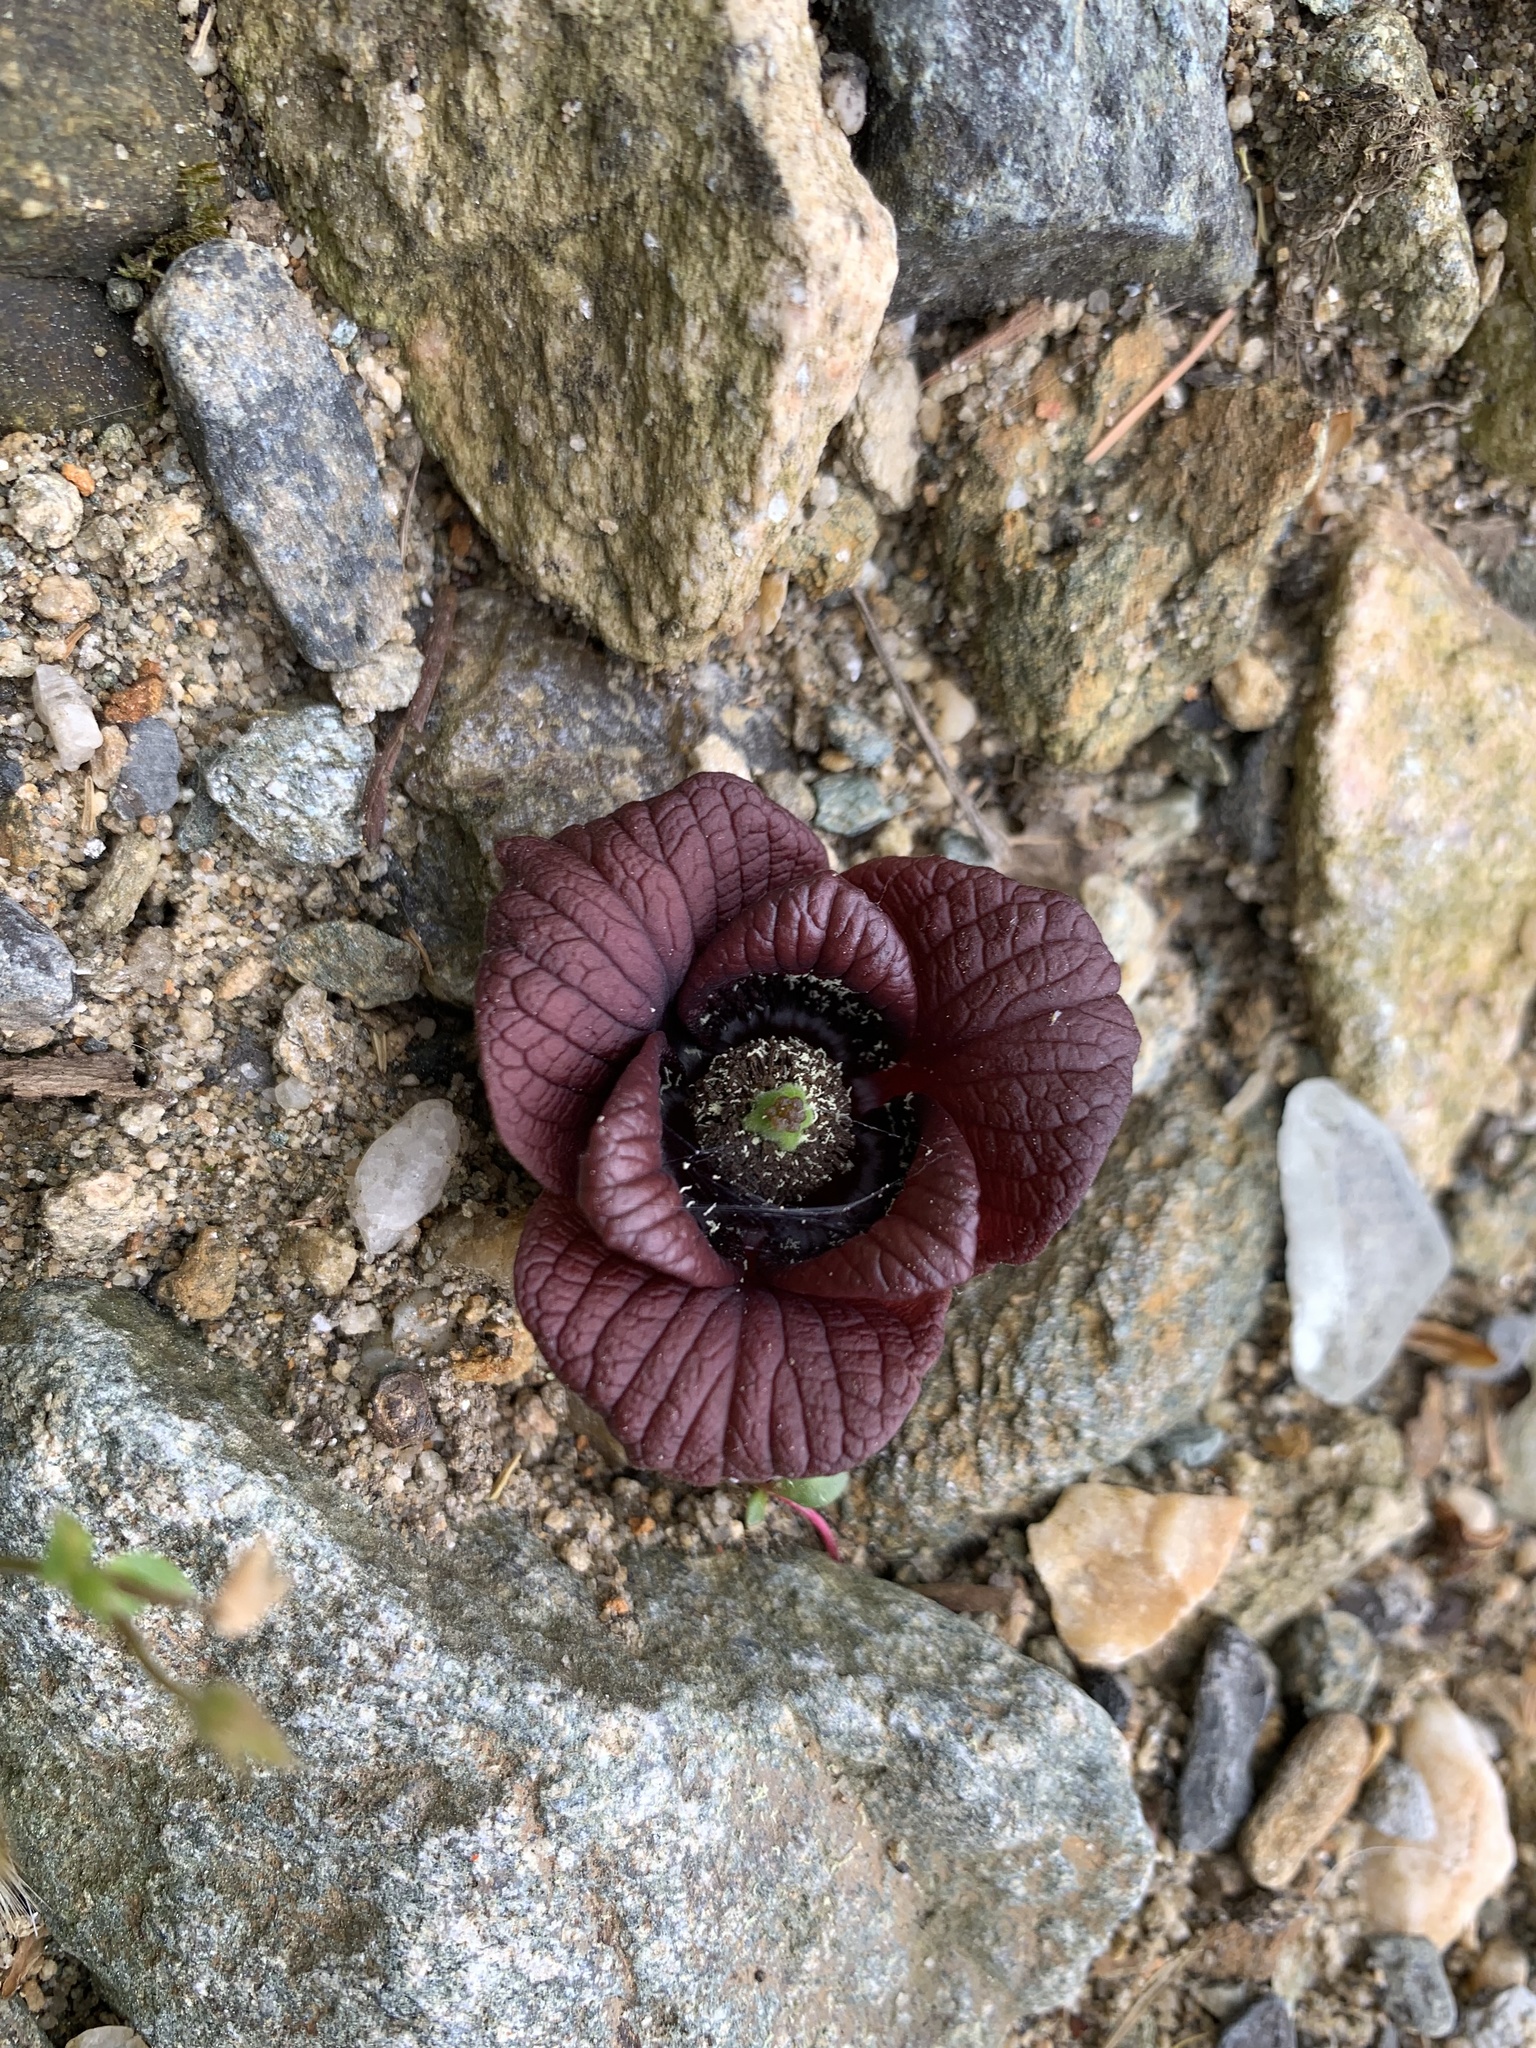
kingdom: Plantae
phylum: Tracheophyta
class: Magnoliopsida
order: Magnoliales
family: Annonaceae
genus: Asimina
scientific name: Asimina triloba
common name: Dog-banana
